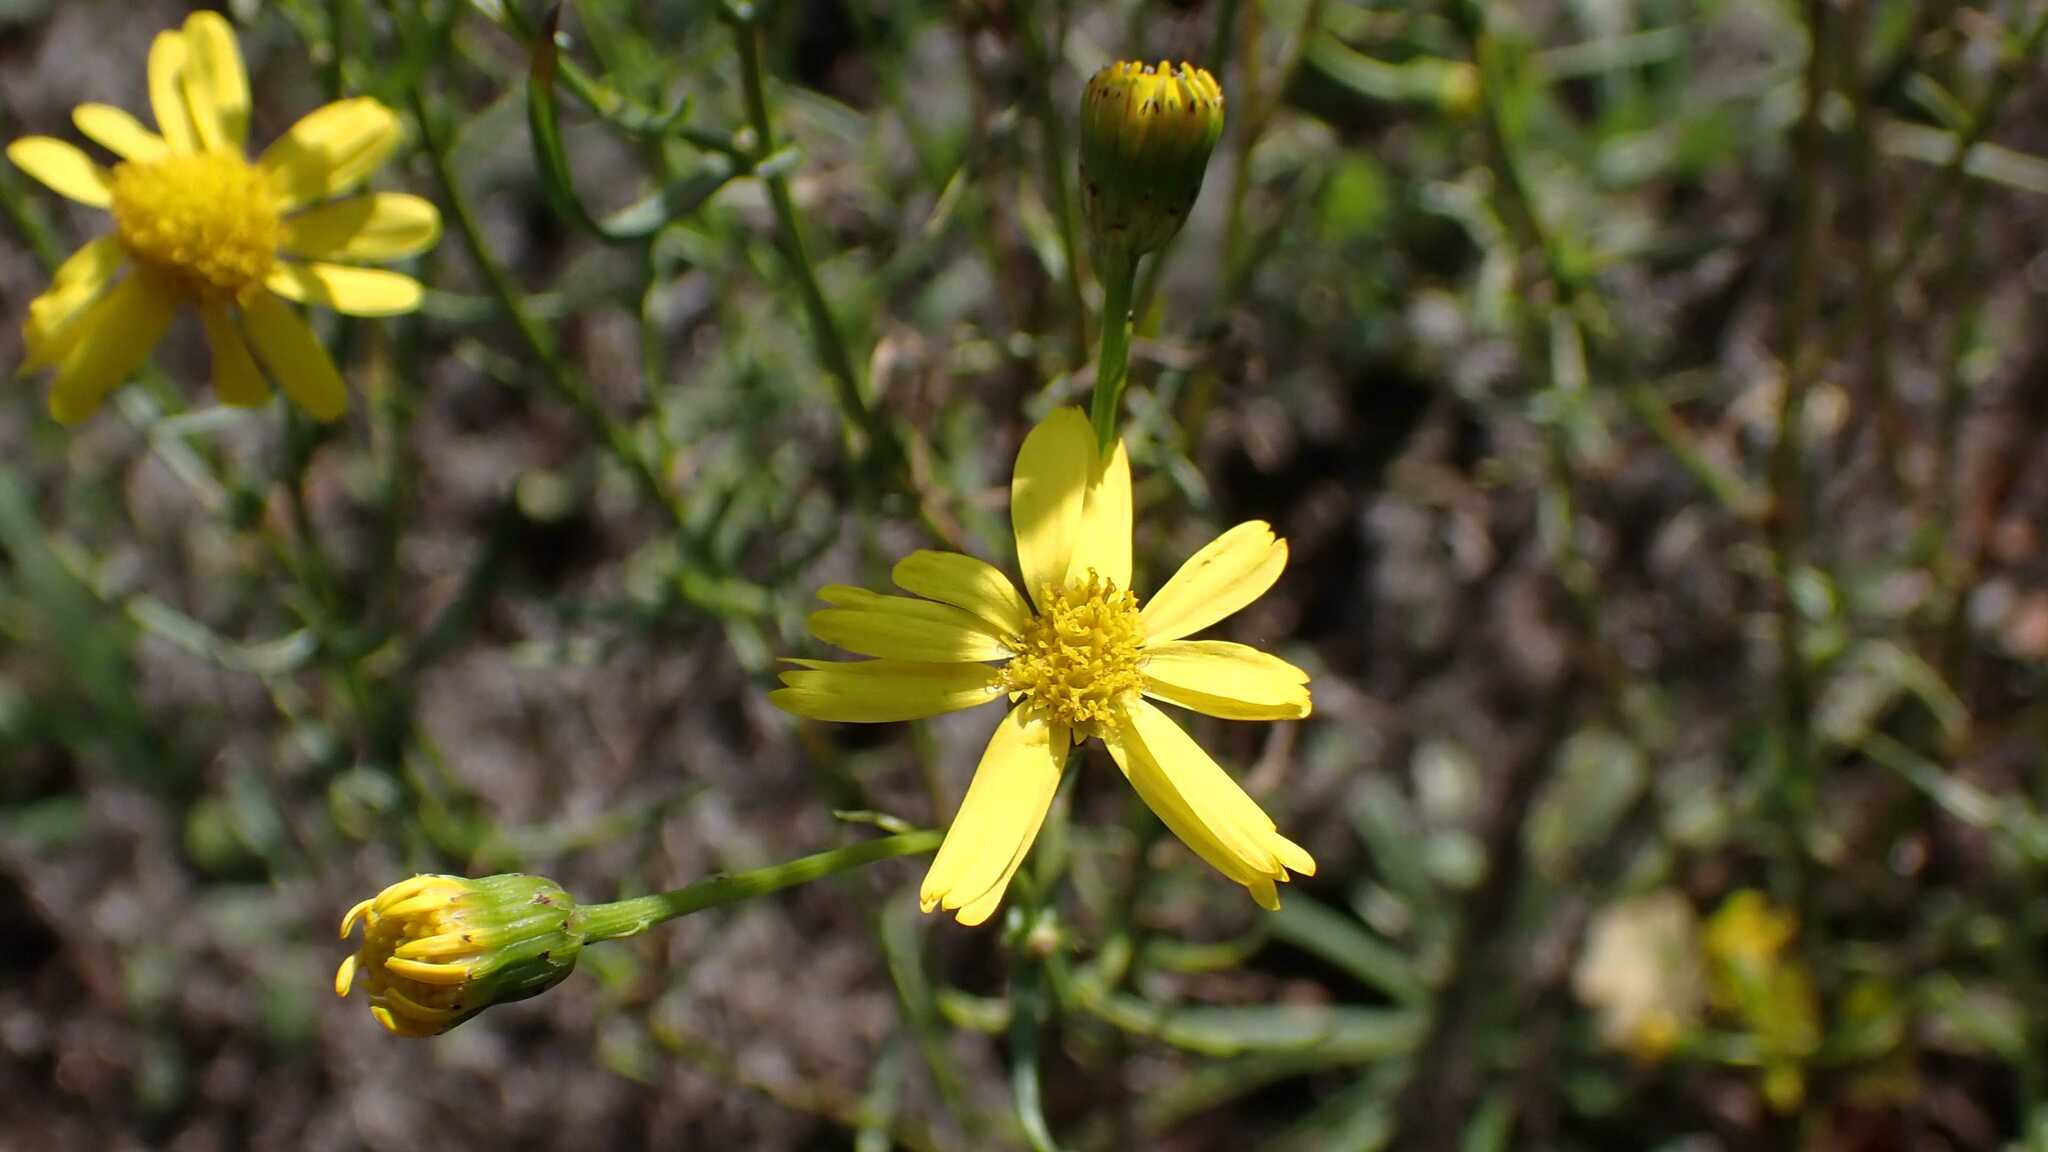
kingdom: Plantae
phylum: Tracheophyta
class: Magnoliopsida
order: Asterales
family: Asteraceae
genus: Senecio
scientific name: Senecio inaequidens
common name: Narrow-leaved ragwort
